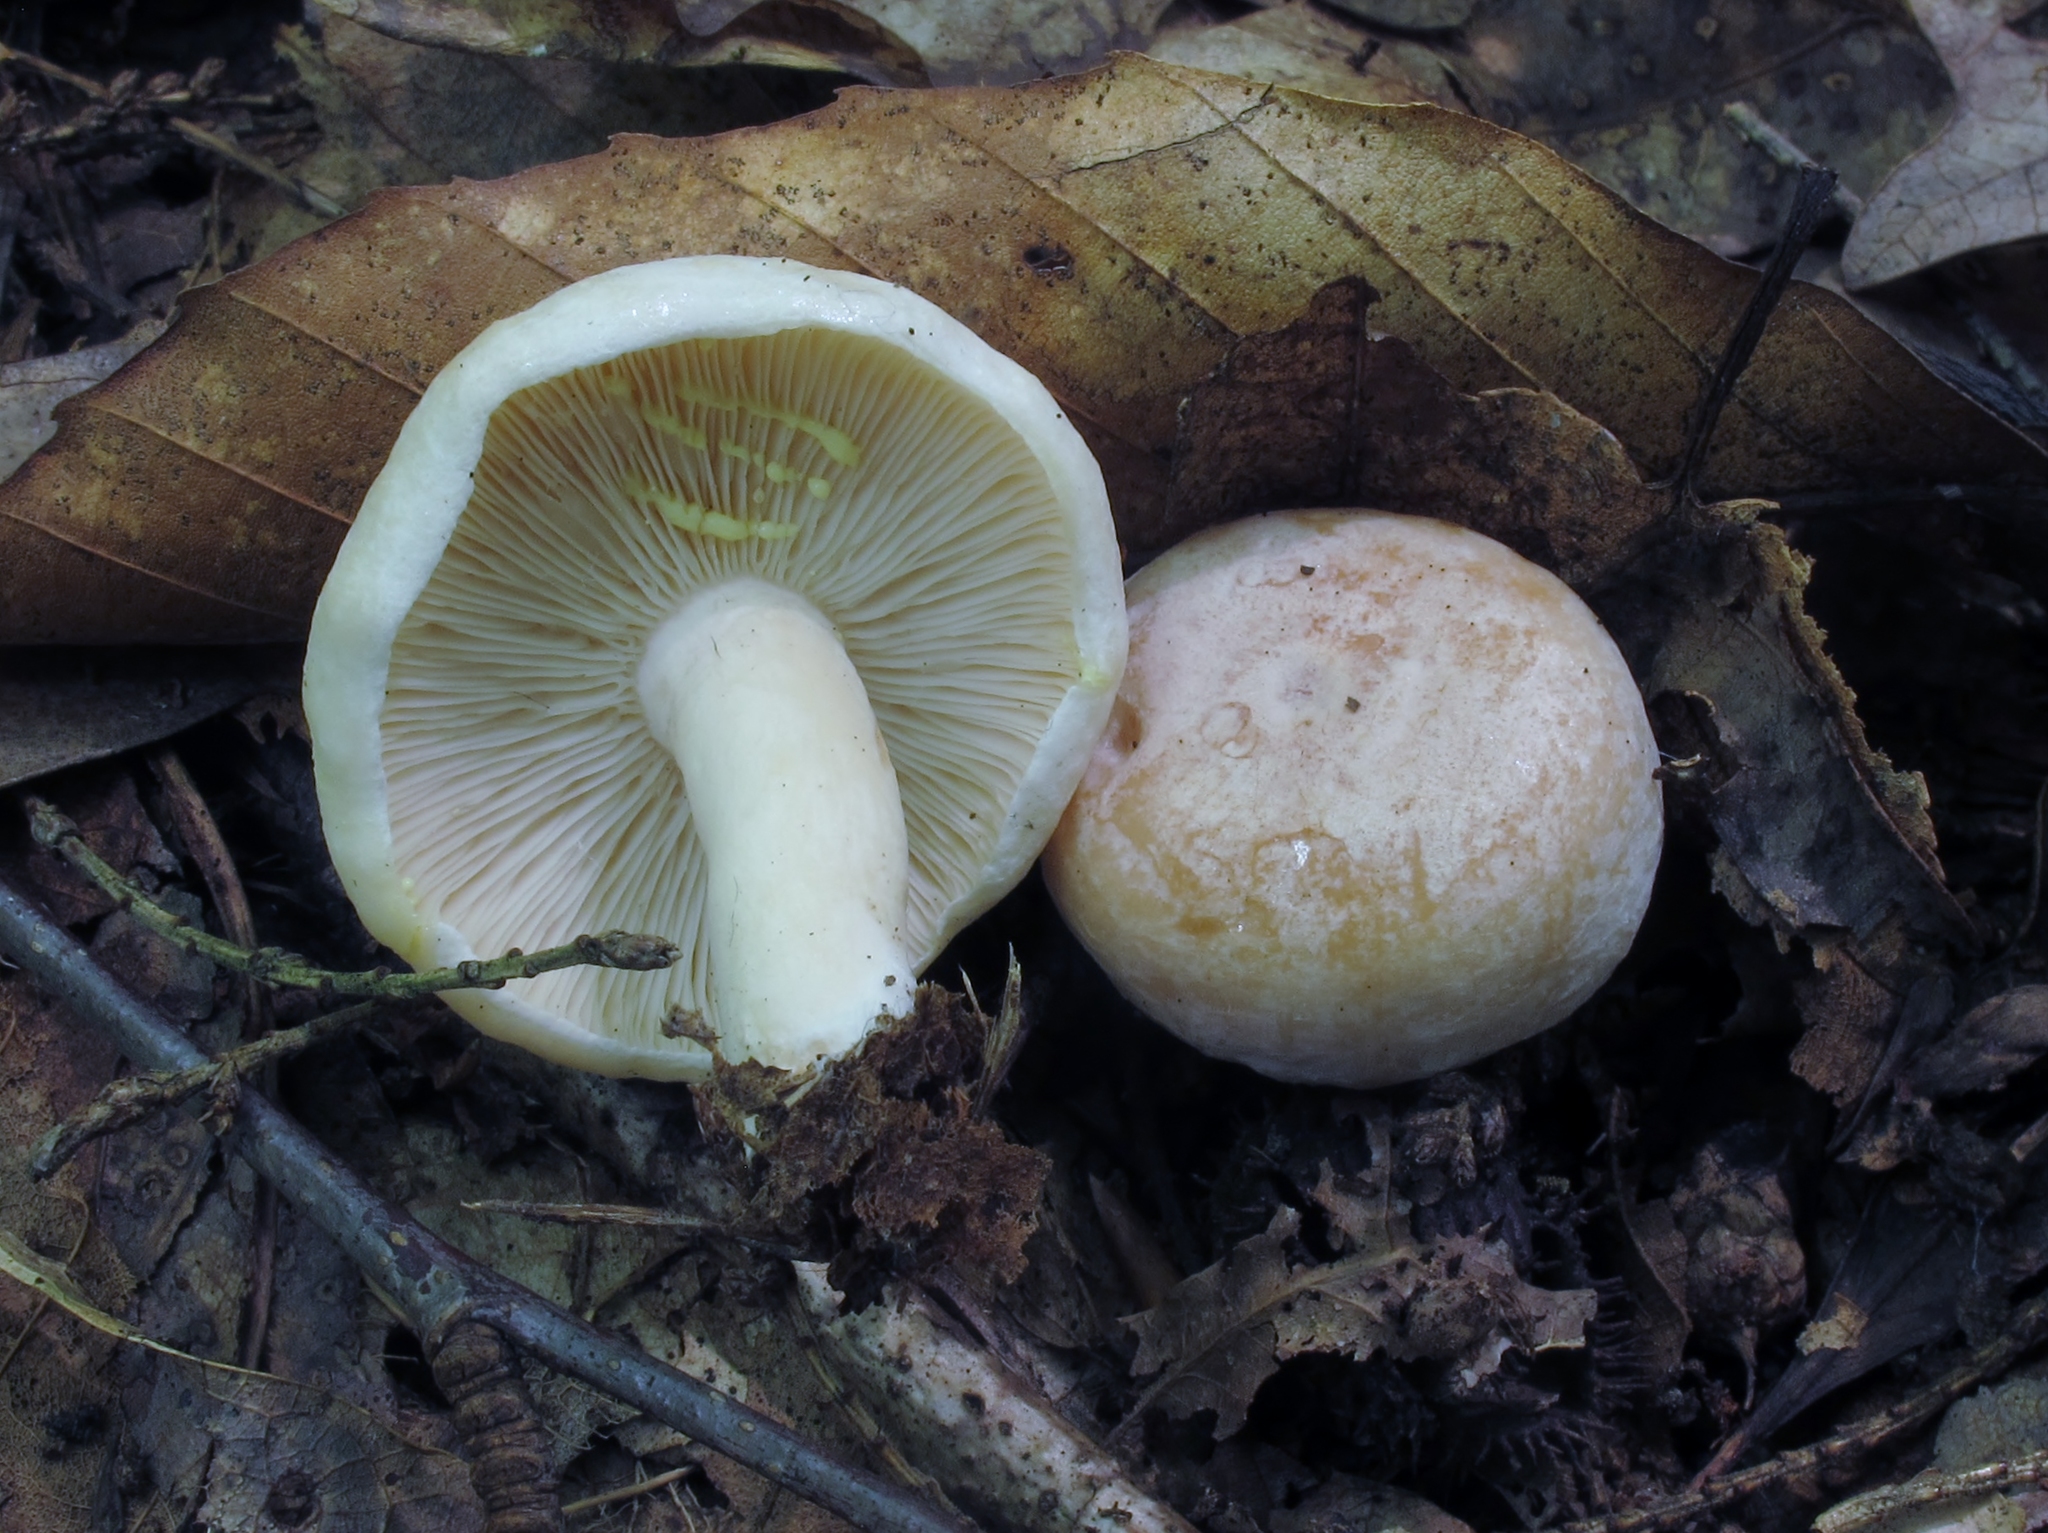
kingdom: Fungi
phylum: Basidiomycota
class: Agaricomycetes
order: Russulales
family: Russulaceae
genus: Lactarius
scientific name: Lactarius chrysorrheus
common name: Yellowdrop milkcap
